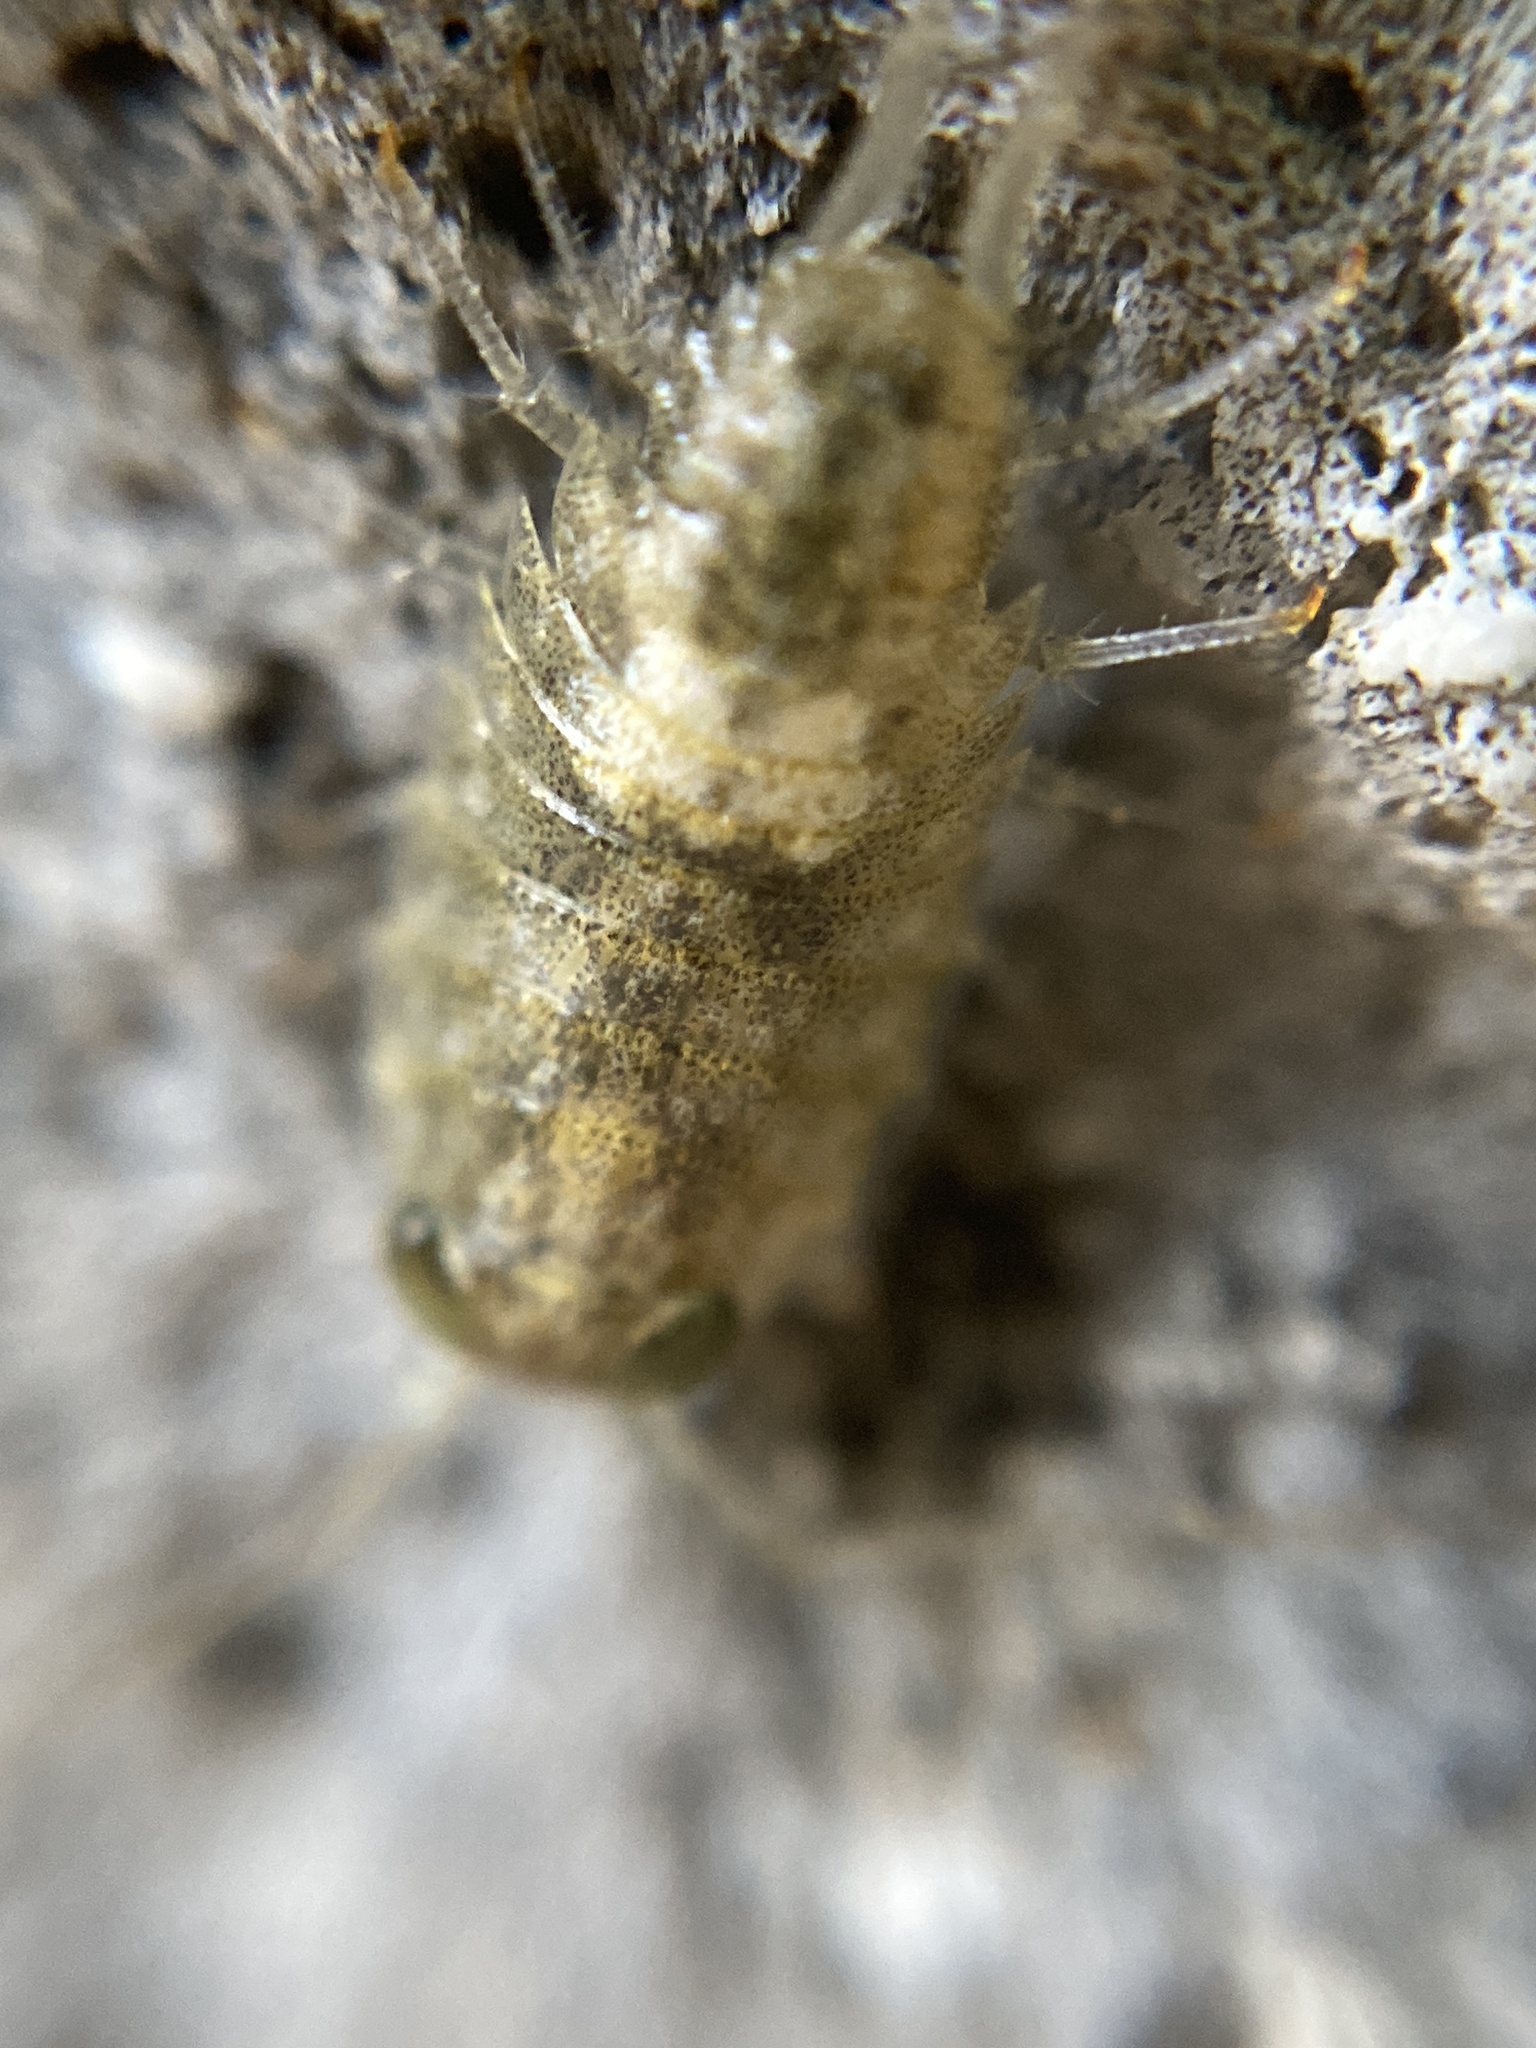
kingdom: Animalia
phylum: Arthropoda
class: Malacostraca
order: Isopoda
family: Ligiidae
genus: Ligia
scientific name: Ligia italica
